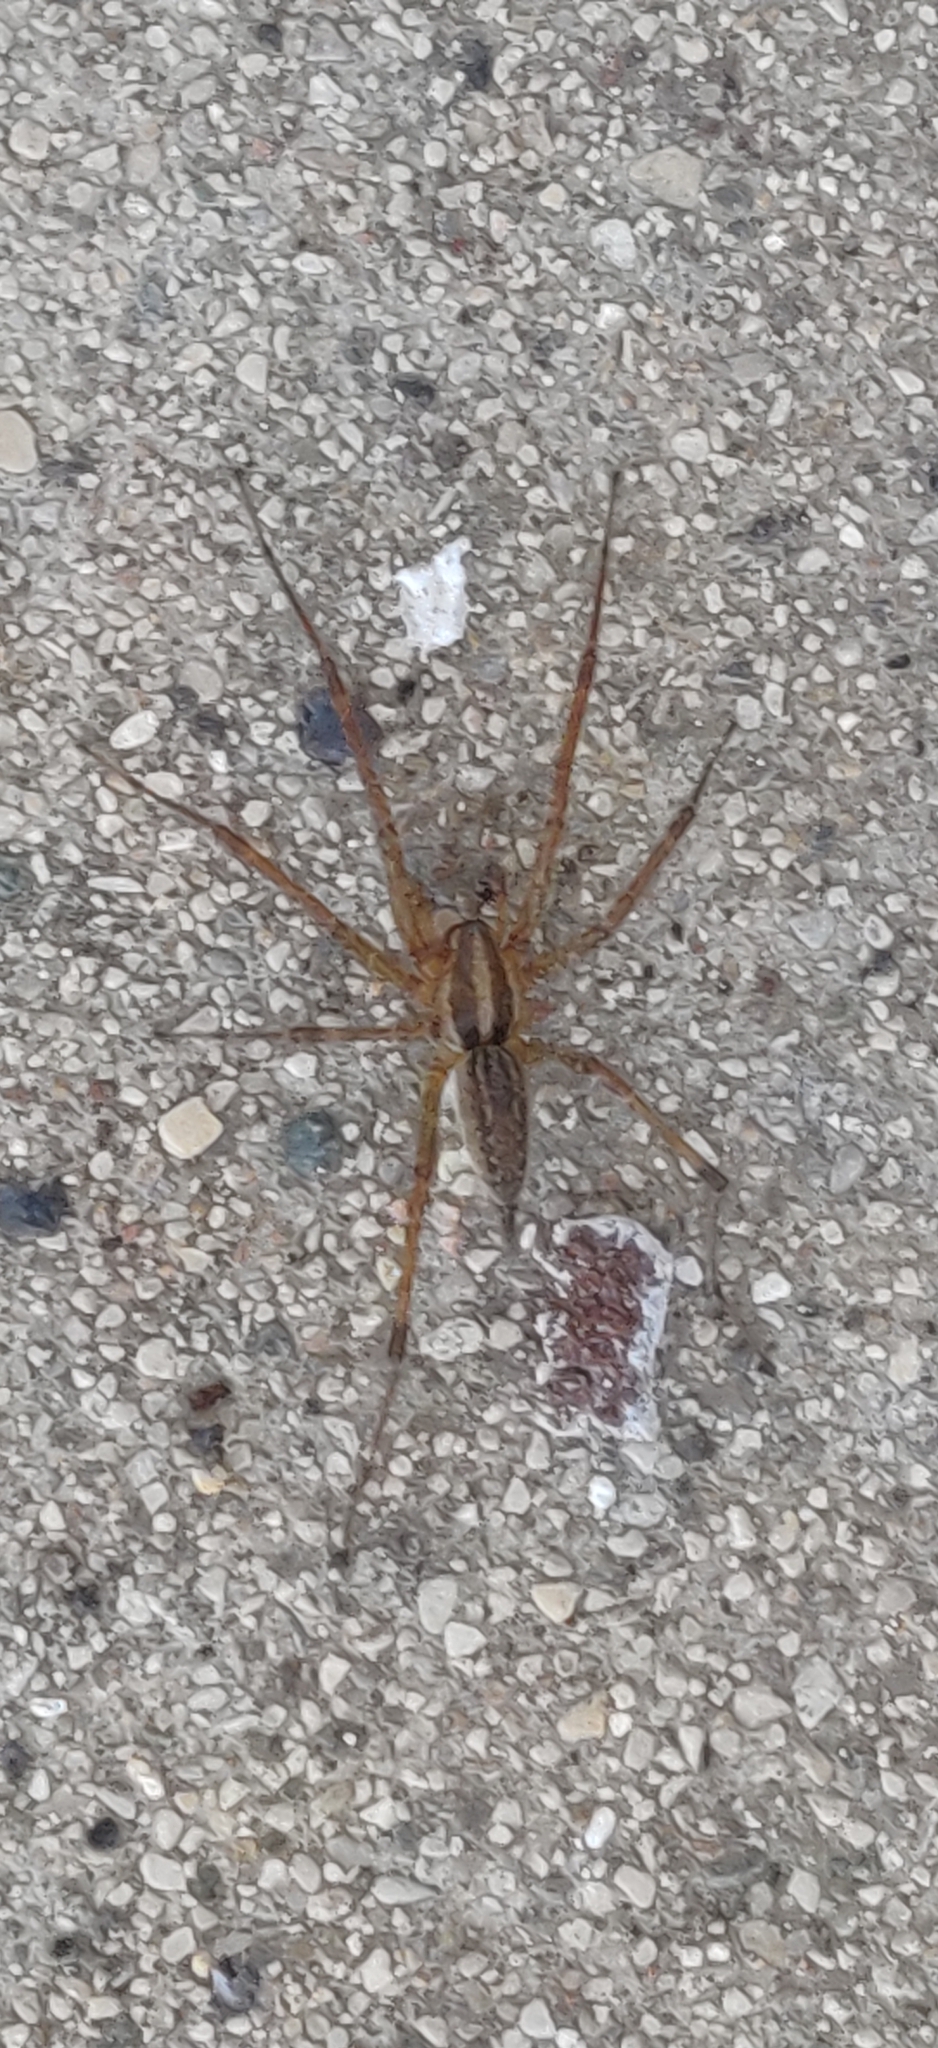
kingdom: Animalia
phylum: Arthropoda
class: Arachnida
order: Araneae
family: Agelenidae
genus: Agelenopsis
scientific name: Agelenopsis
